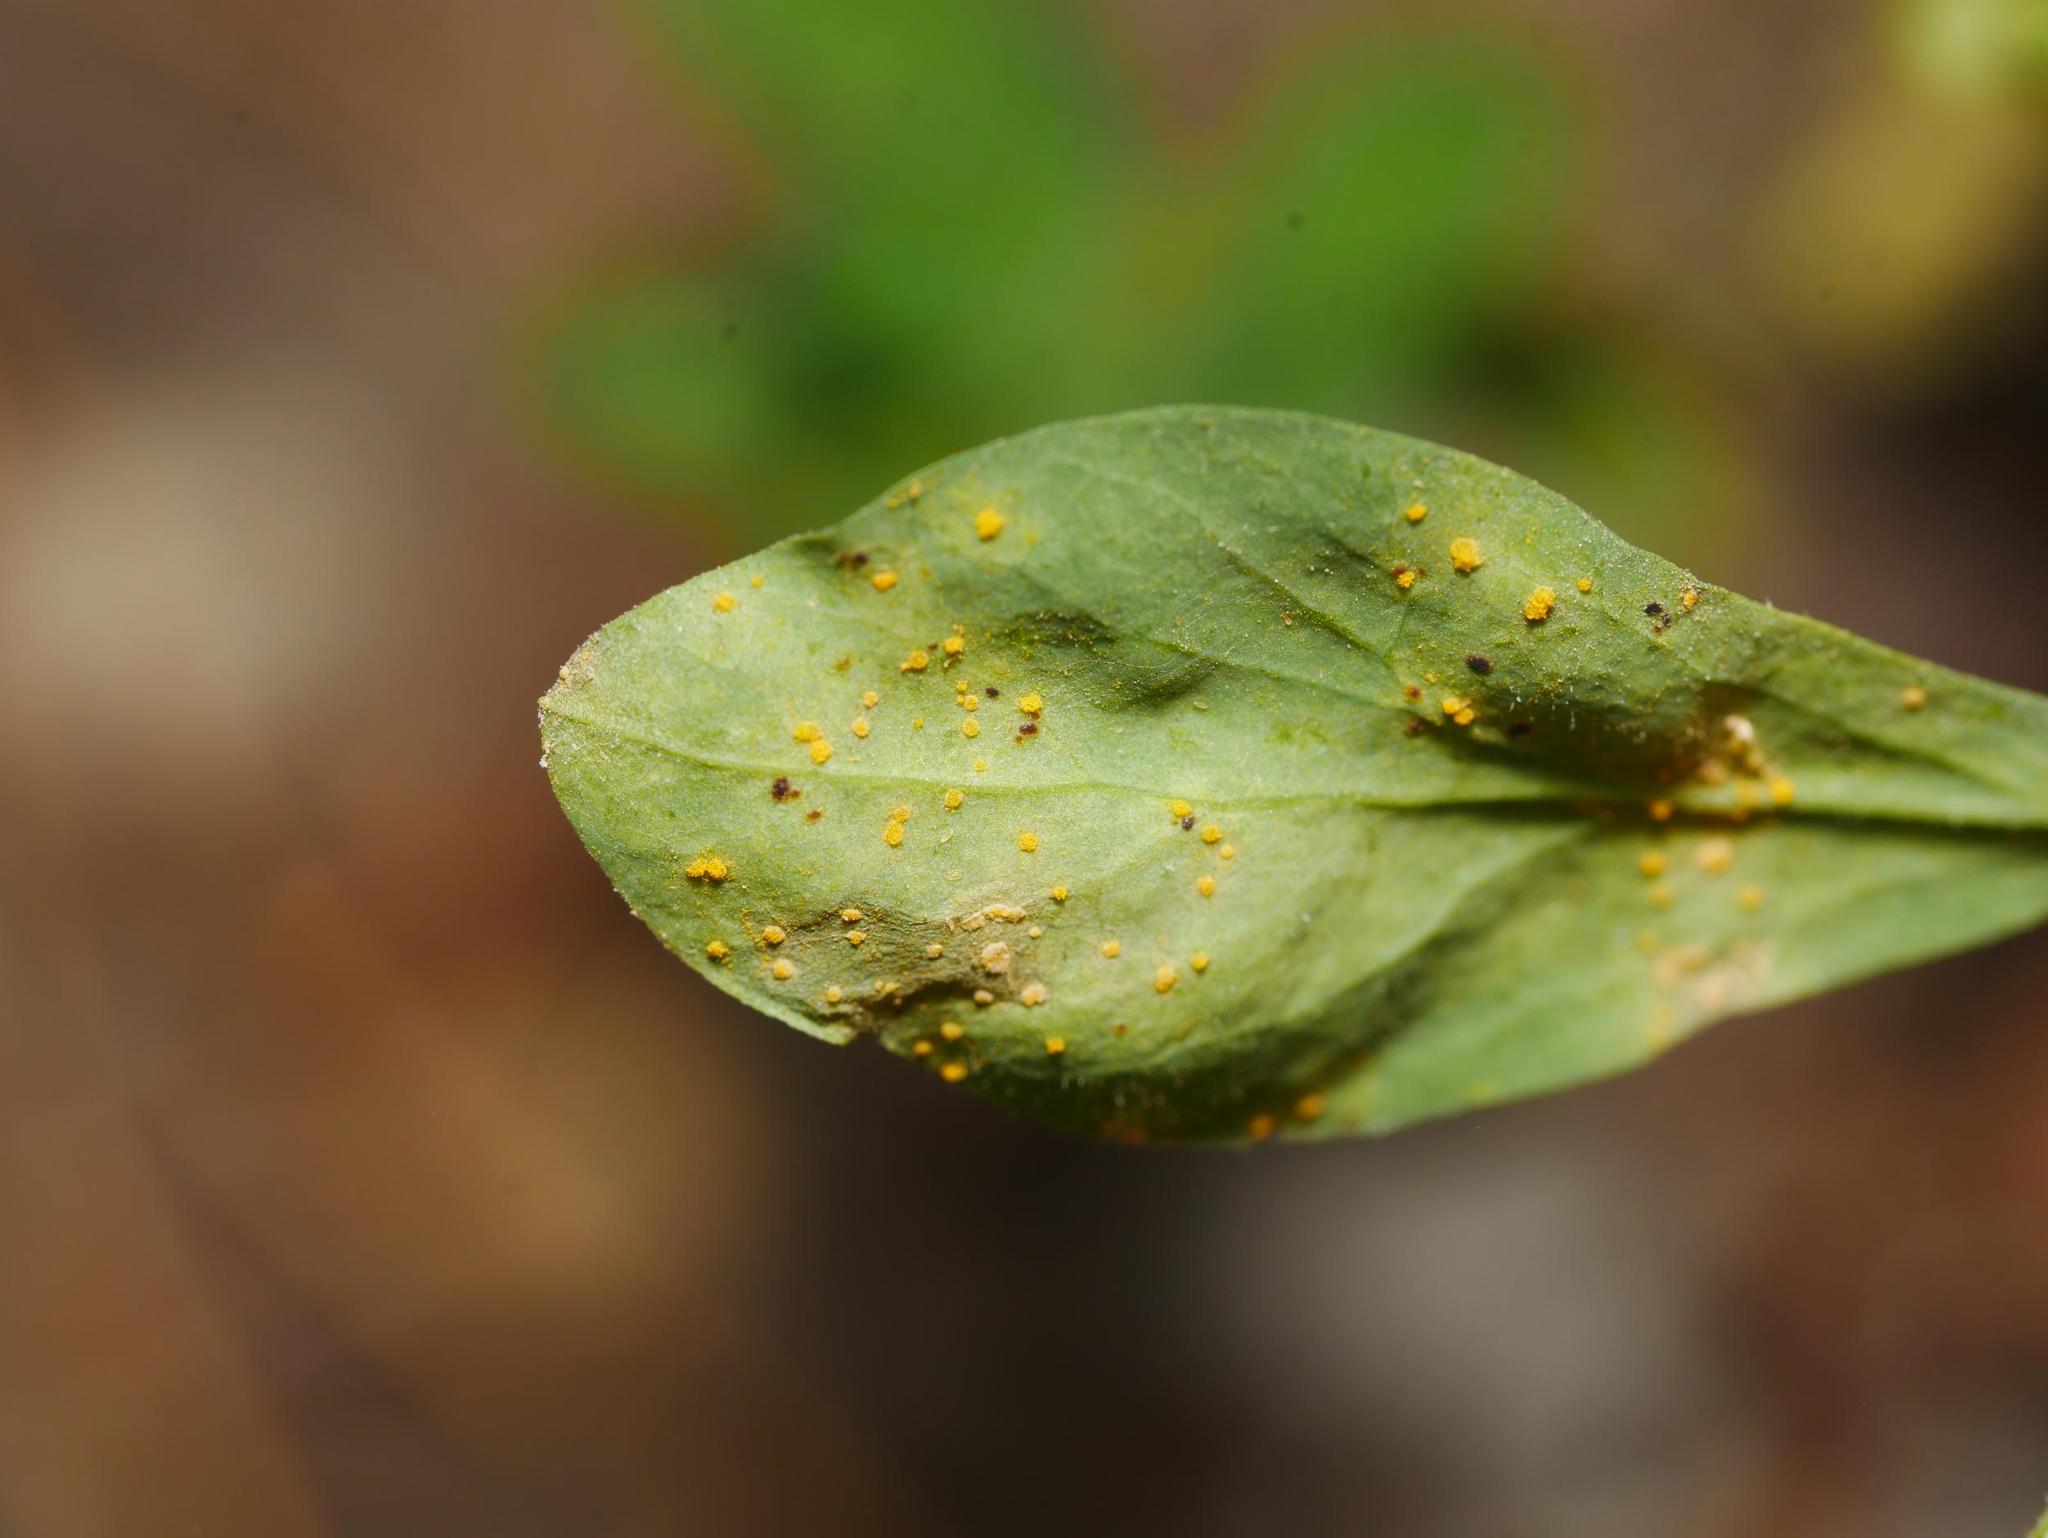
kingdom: Fungi
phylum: Basidiomycota
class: Pucciniomycetes
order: Pucciniales
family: Melampsoraceae
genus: Melampsora
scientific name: Melampsora euphorbiae
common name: Spurge rust
